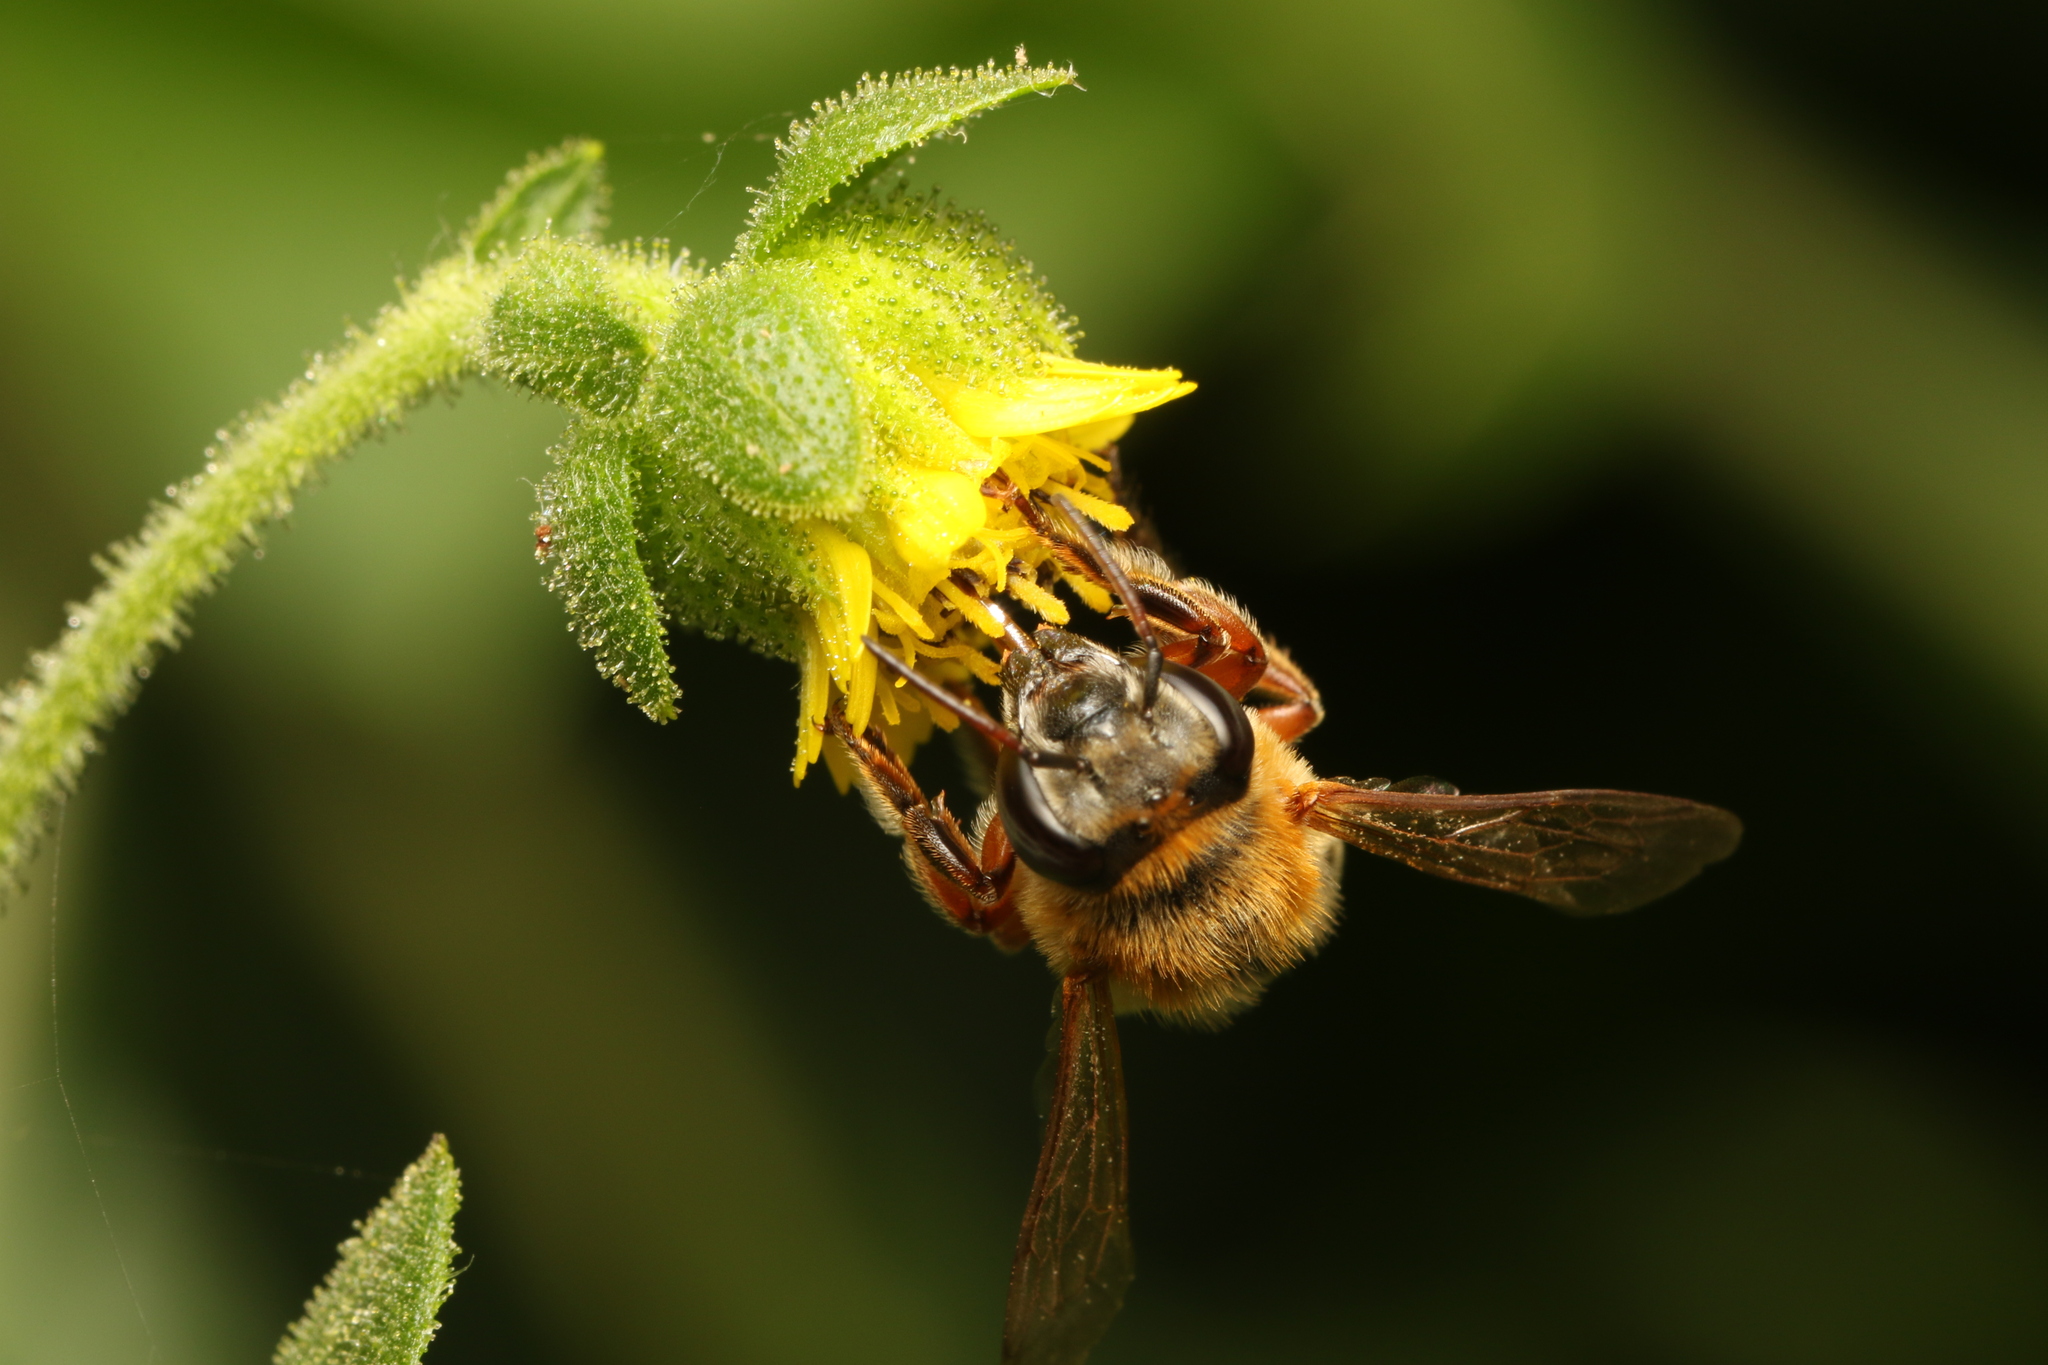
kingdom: Animalia
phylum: Arthropoda
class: Insecta
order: Hymenoptera
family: Apidae
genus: Apis
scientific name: Apis mellifera
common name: Honey bee
